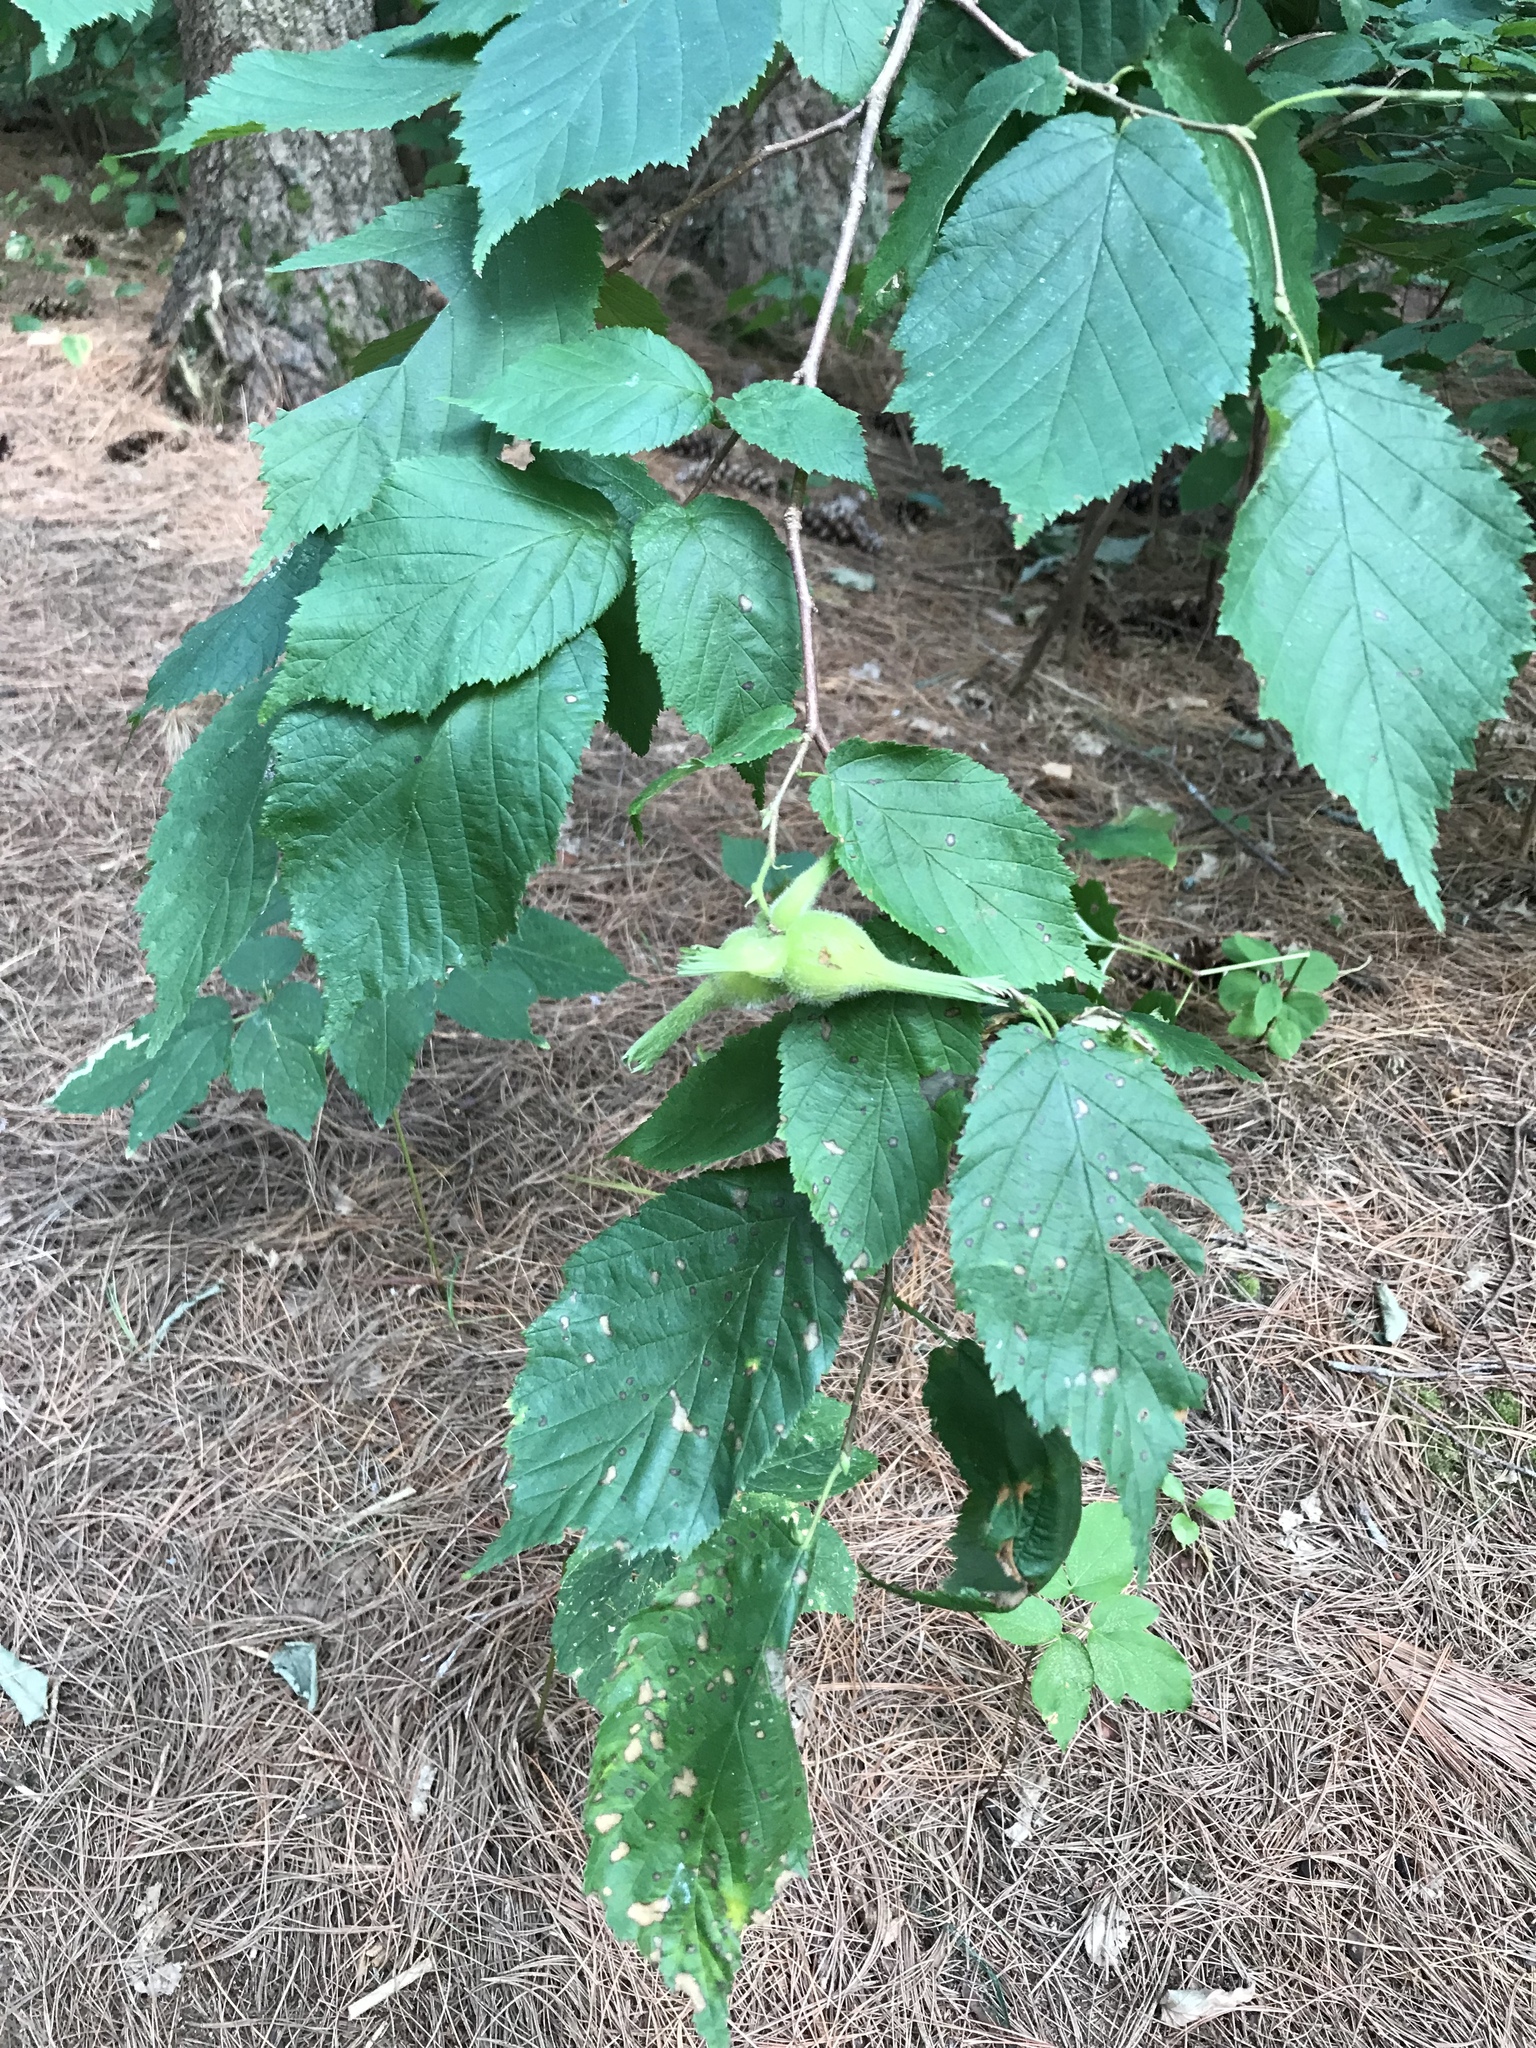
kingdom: Plantae
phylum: Tracheophyta
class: Magnoliopsida
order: Fagales
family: Betulaceae
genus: Corylus
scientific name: Corylus cornuta
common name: Beaked hazel
